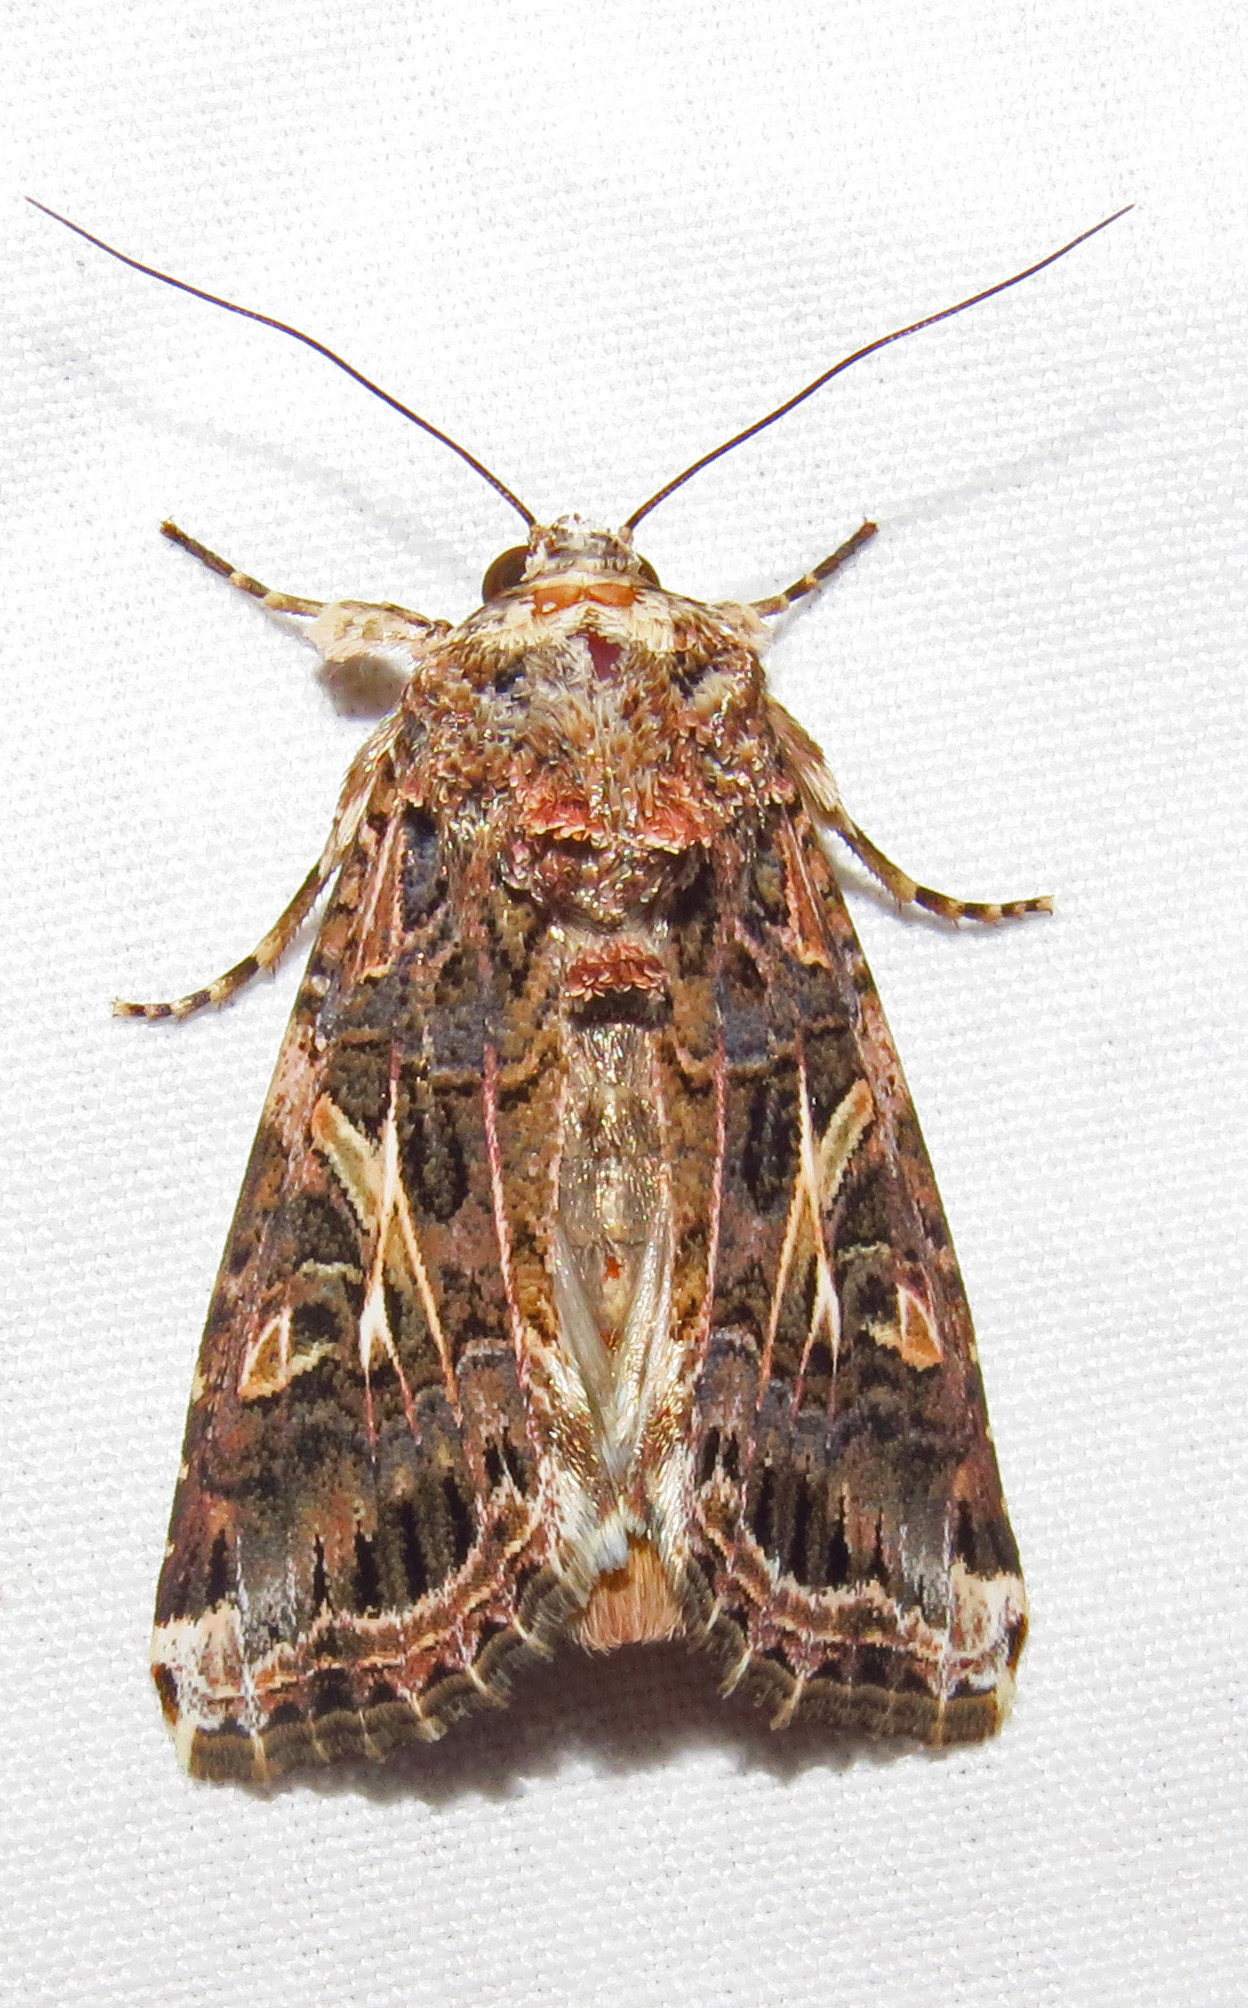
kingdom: Animalia
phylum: Arthropoda
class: Insecta
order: Lepidoptera
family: Noctuidae
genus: Spodoptera
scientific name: Spodoptera ornithogalli
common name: Yellow-striped armyworm
